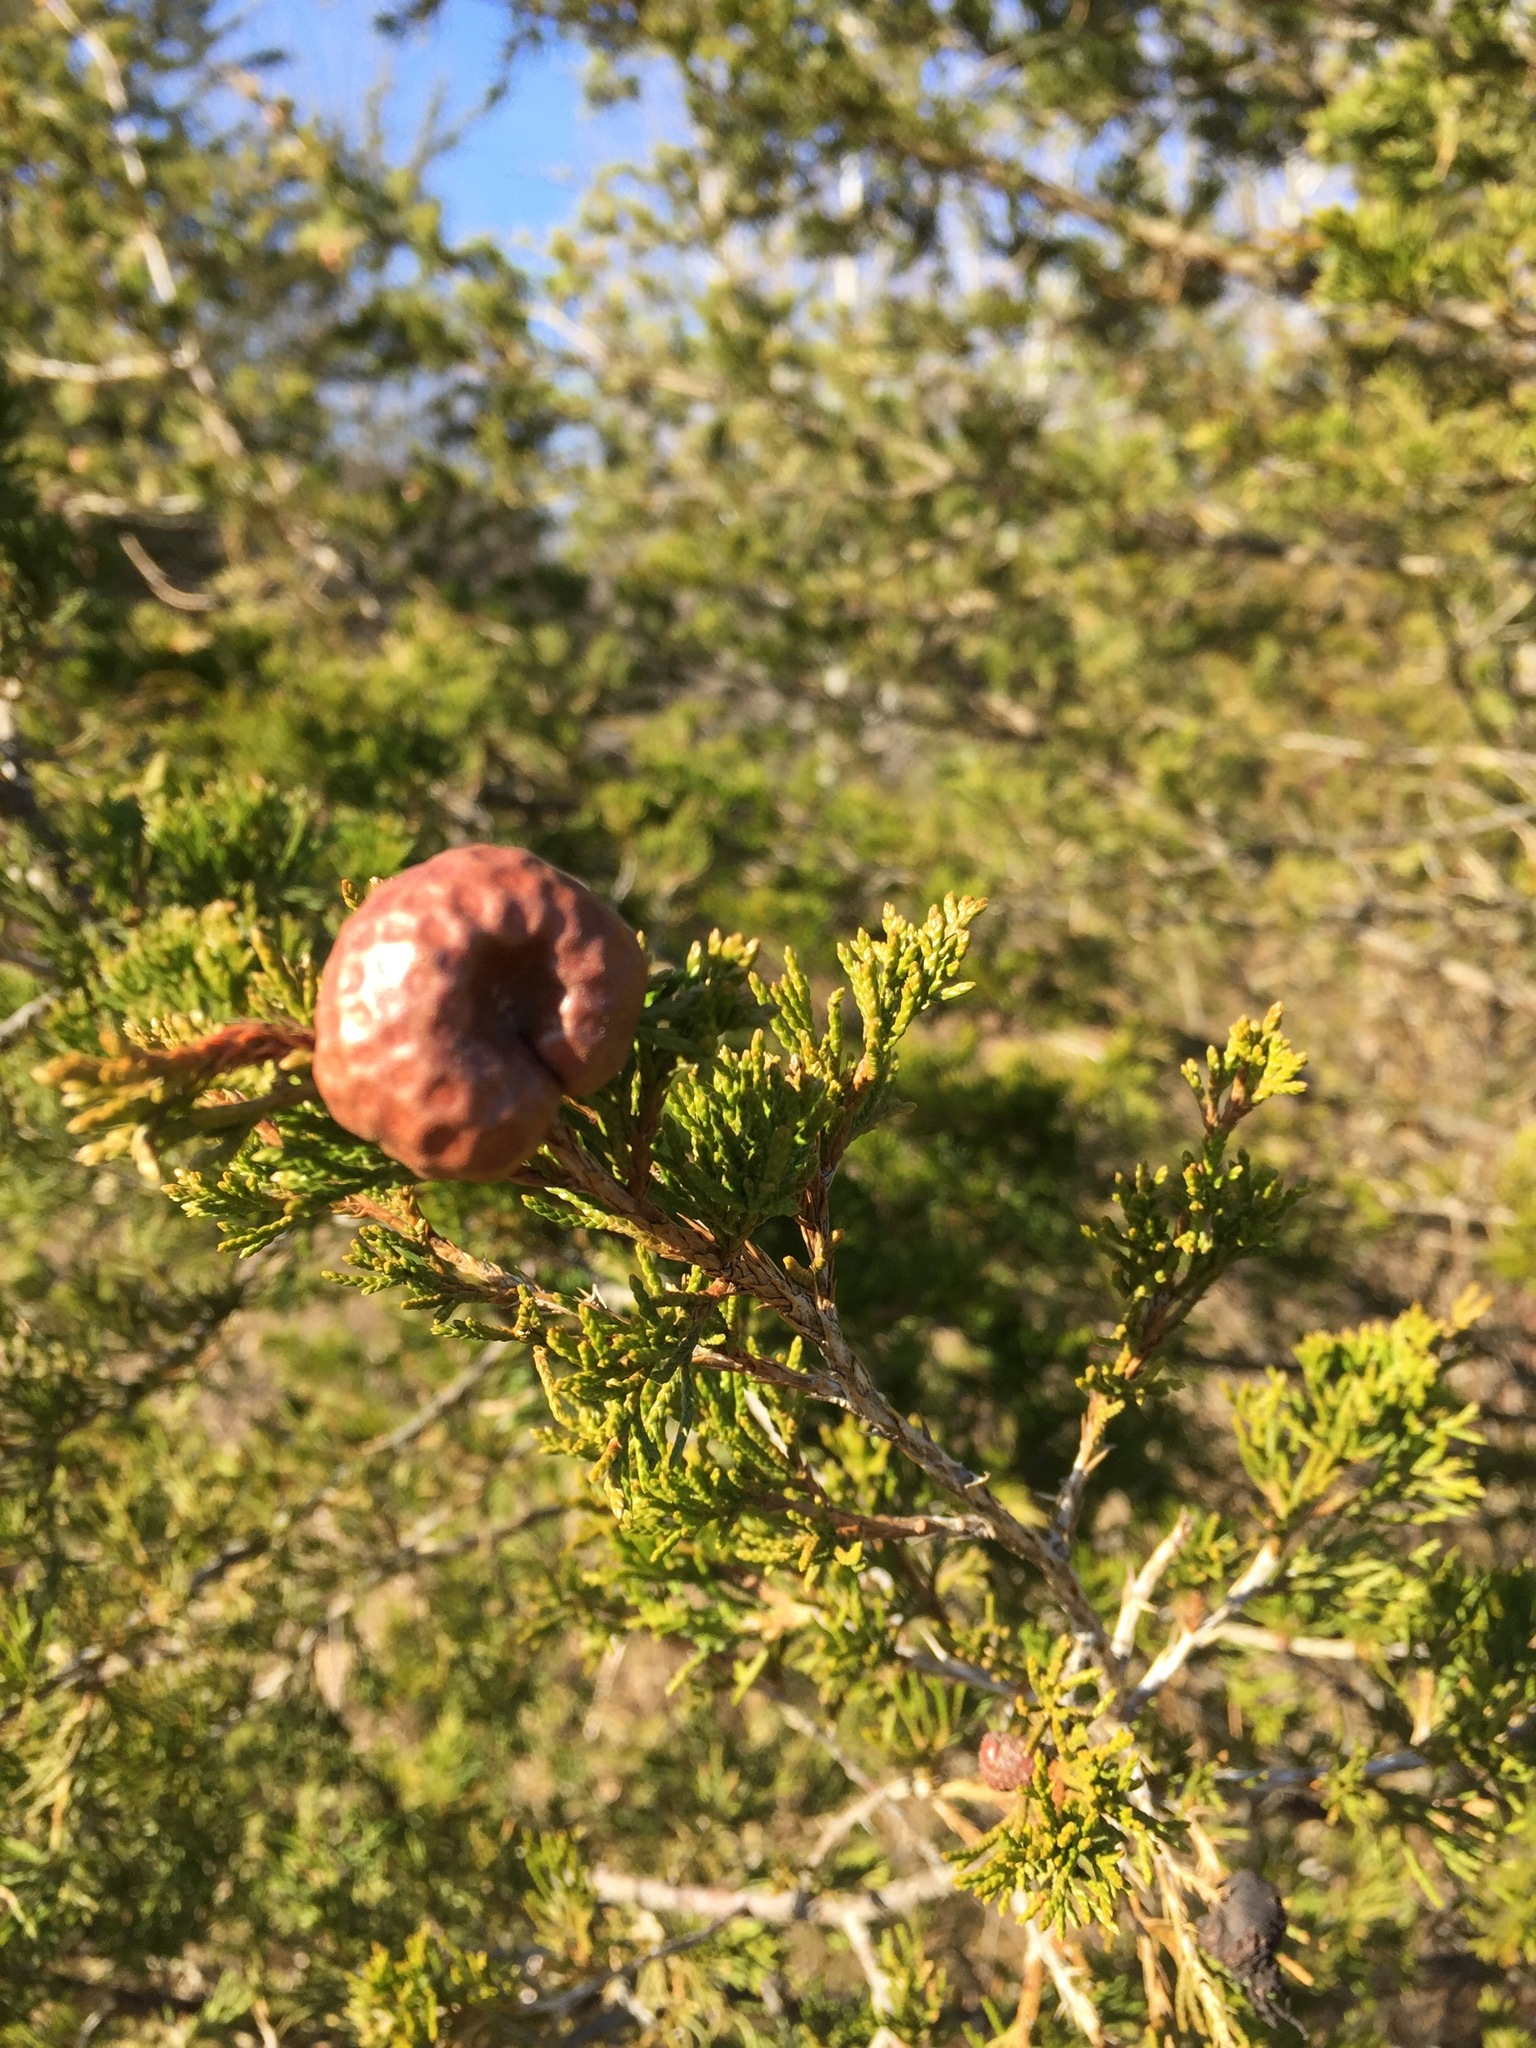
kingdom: Fungi
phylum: Basidiomycota
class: Pucciniomycetes
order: Pucciniales
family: Gymnosporangiaceae
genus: Gymnosporangium
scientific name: Gymnosporangium juniperi-virginianae
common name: Juniper-apple rust
